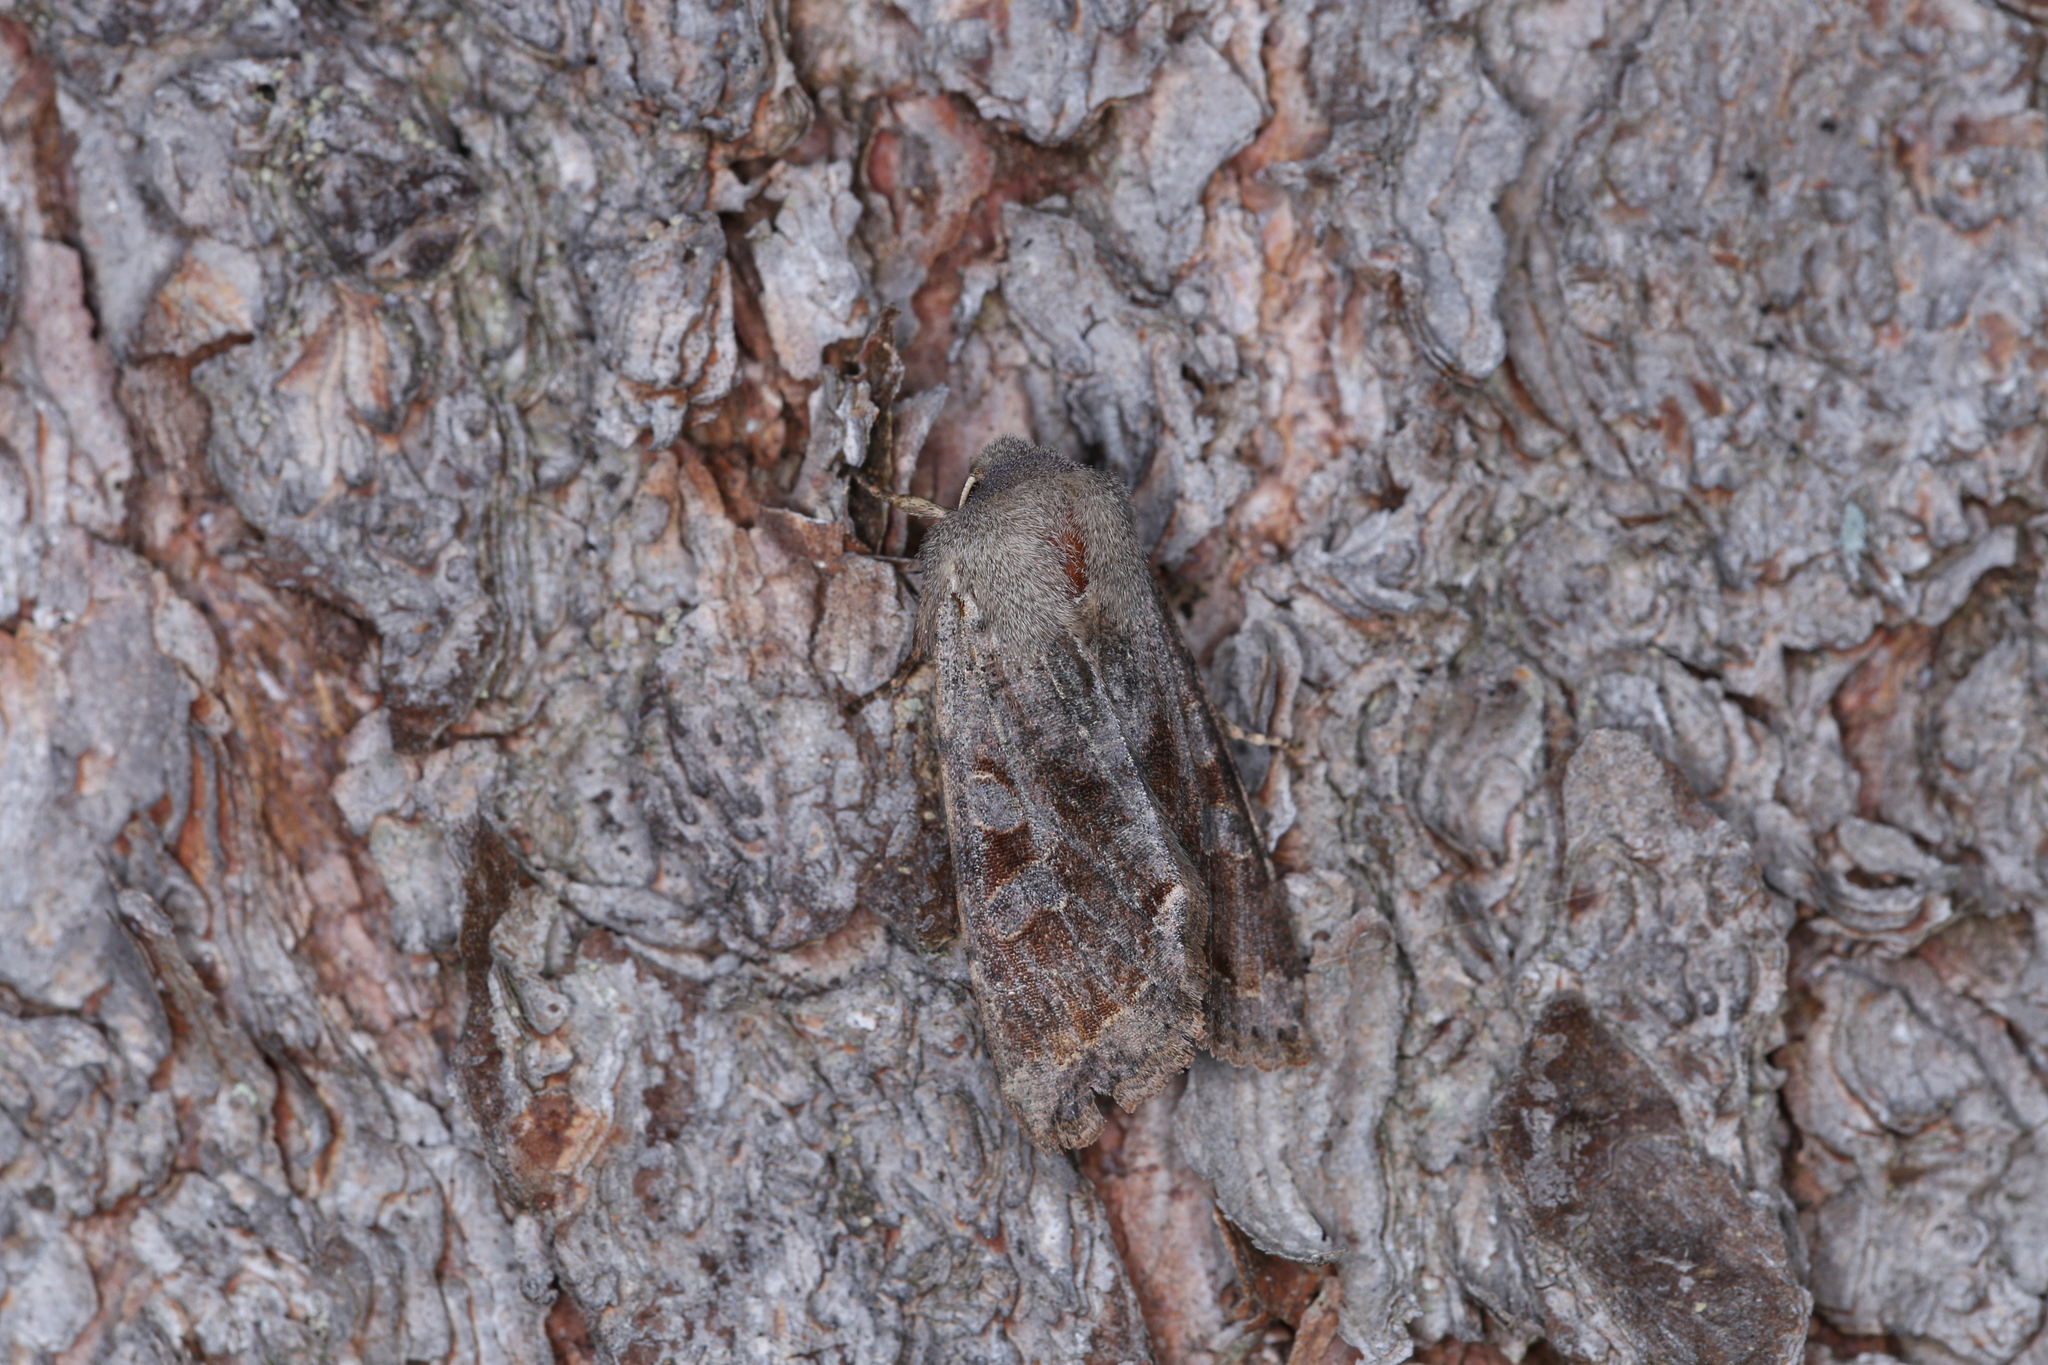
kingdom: Animalia
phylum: Arthropoda
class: Insecta
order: Lepidoptera
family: Noctuidae
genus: Orthosia
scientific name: Orthosia incerta
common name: Clouded drab
